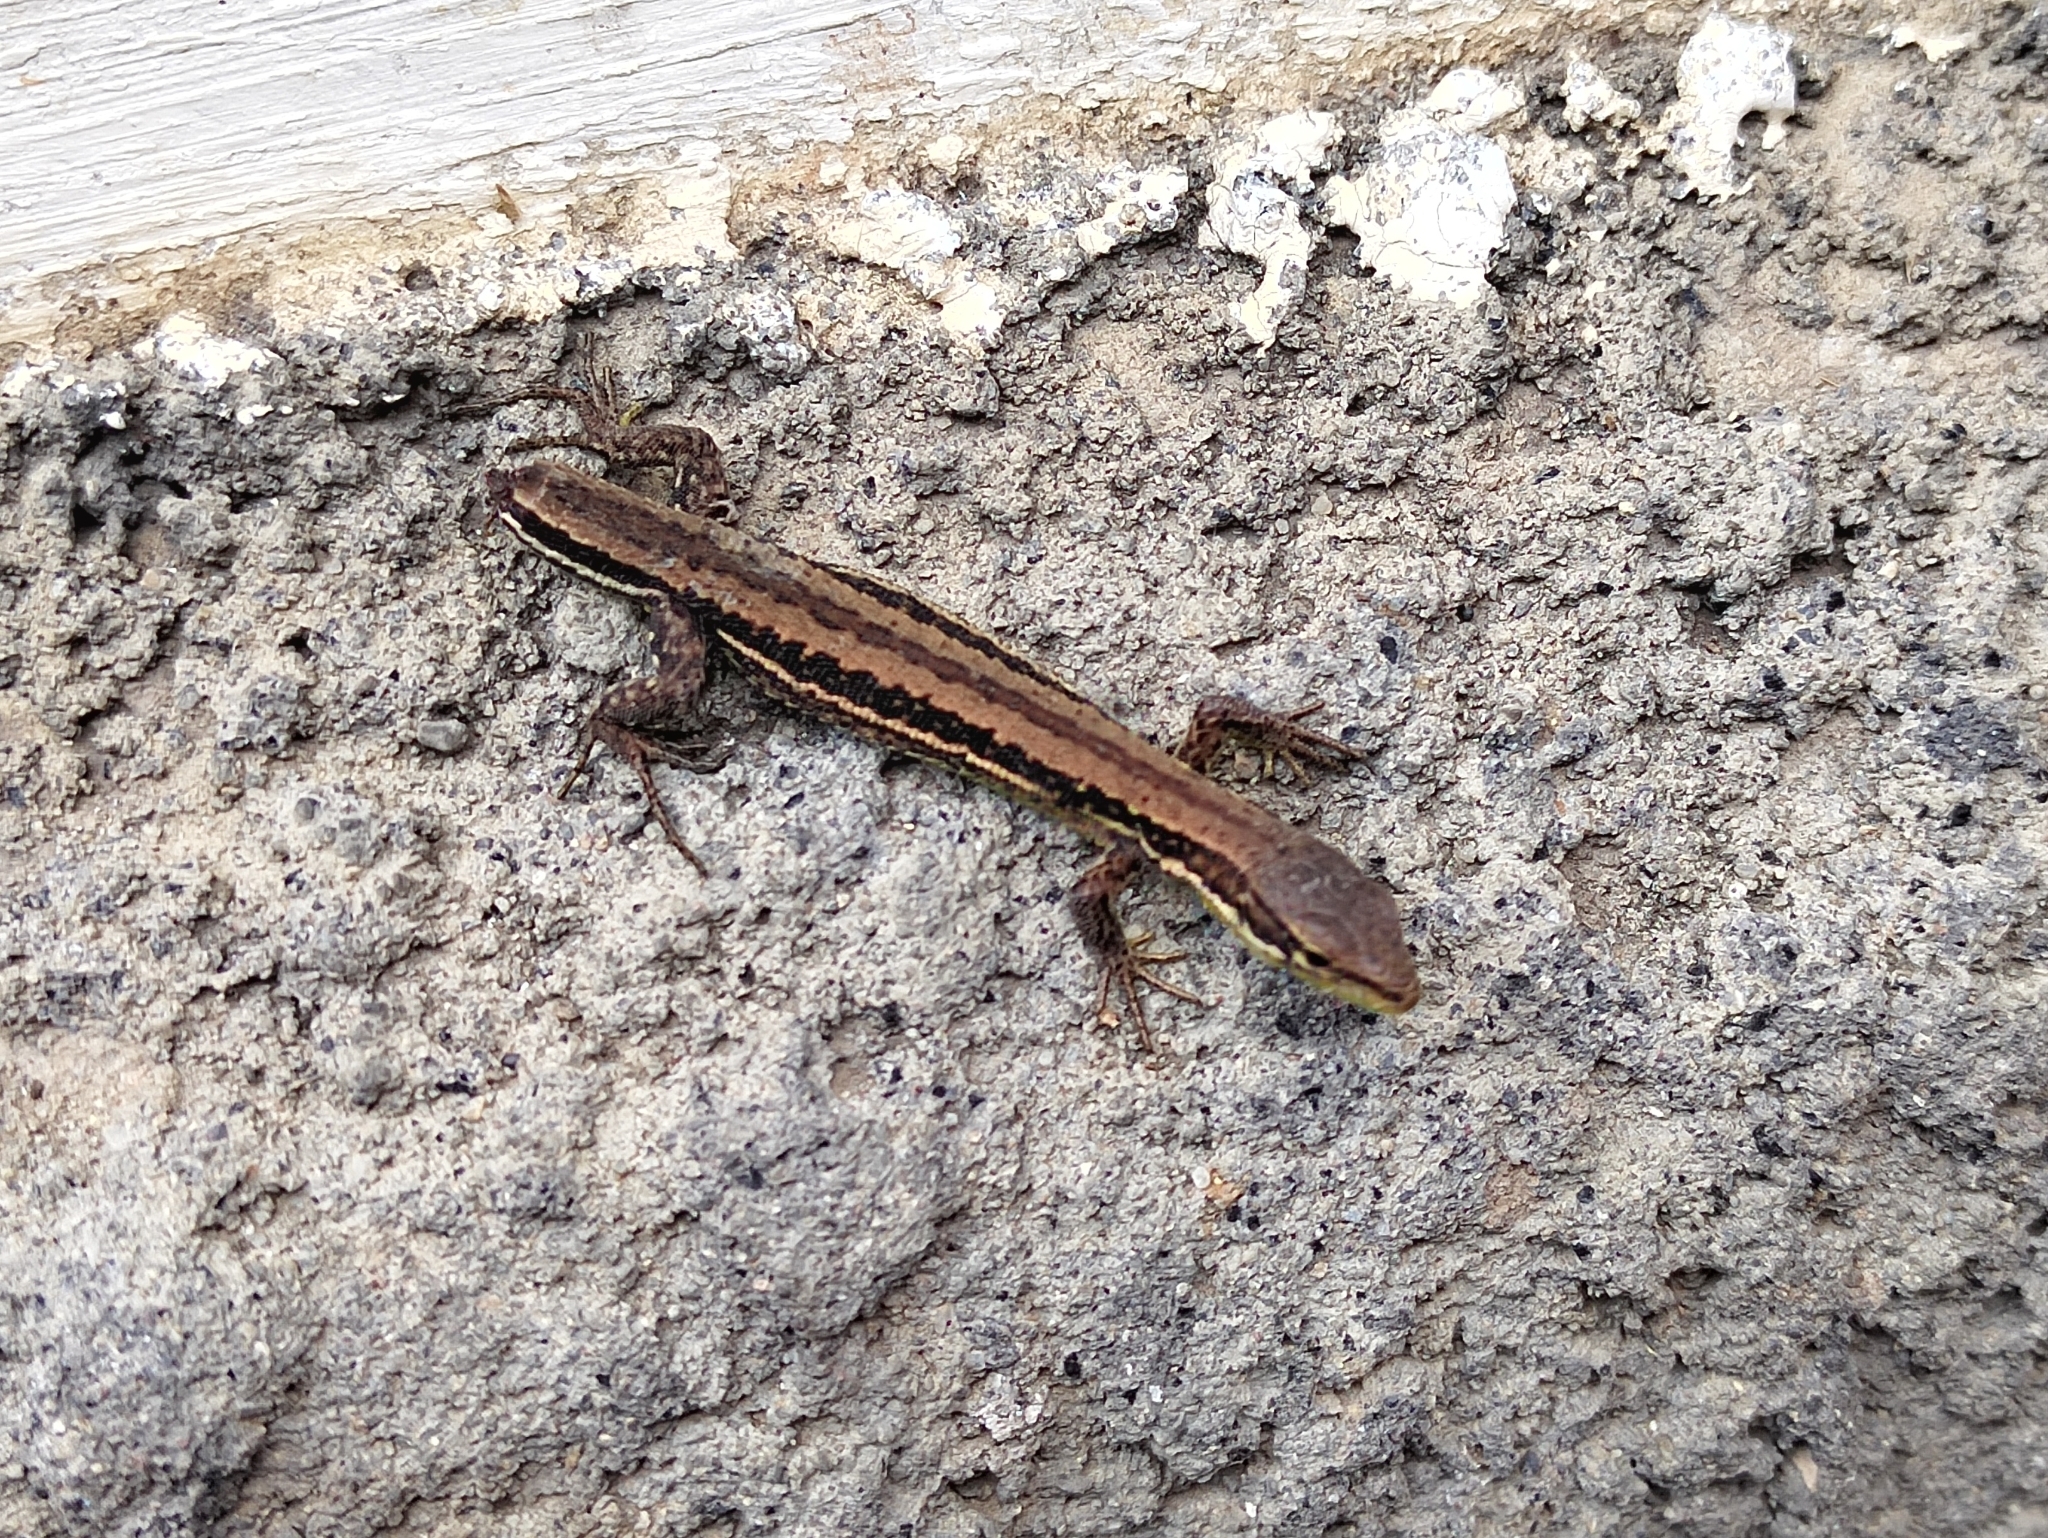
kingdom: Animalia
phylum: Chordata
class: Squamata
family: Lacertidae
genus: Darevskia
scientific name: Darevskia praticola
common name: Meadow lizard
